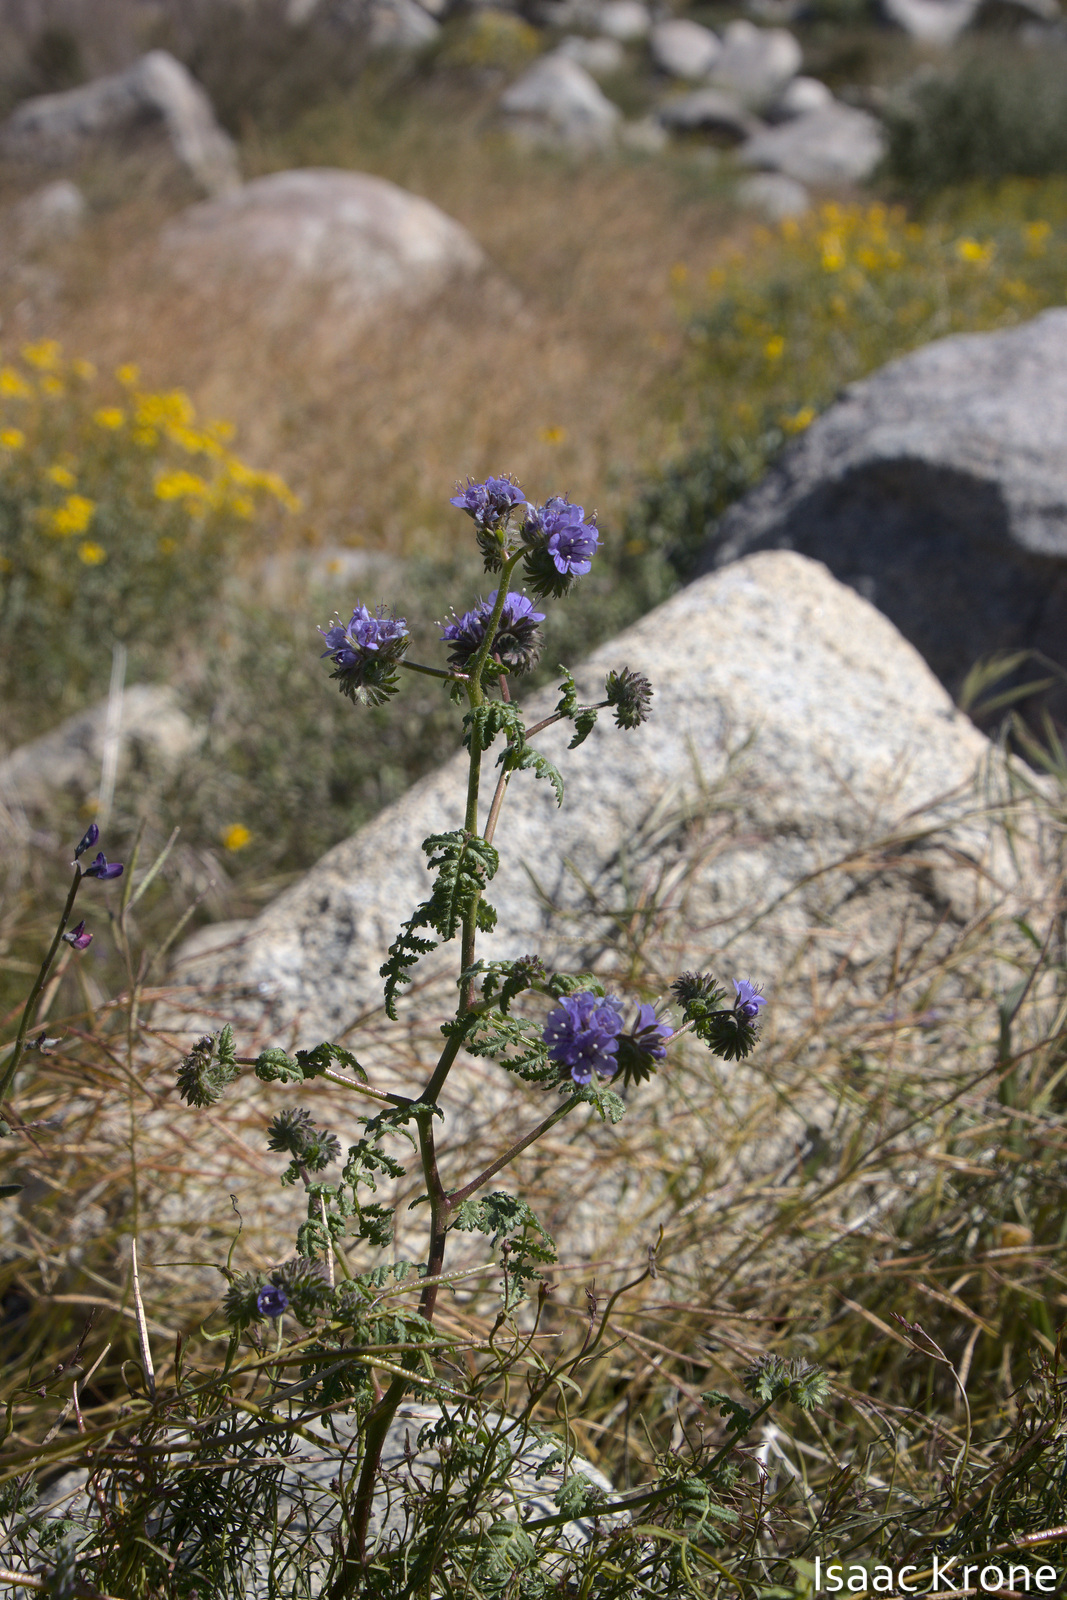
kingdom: Plantae
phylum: Tracheophyta
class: Magnoliopsida
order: Boraginales
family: Hydrophyllaceae
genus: Phacelia
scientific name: Phacelia distans
